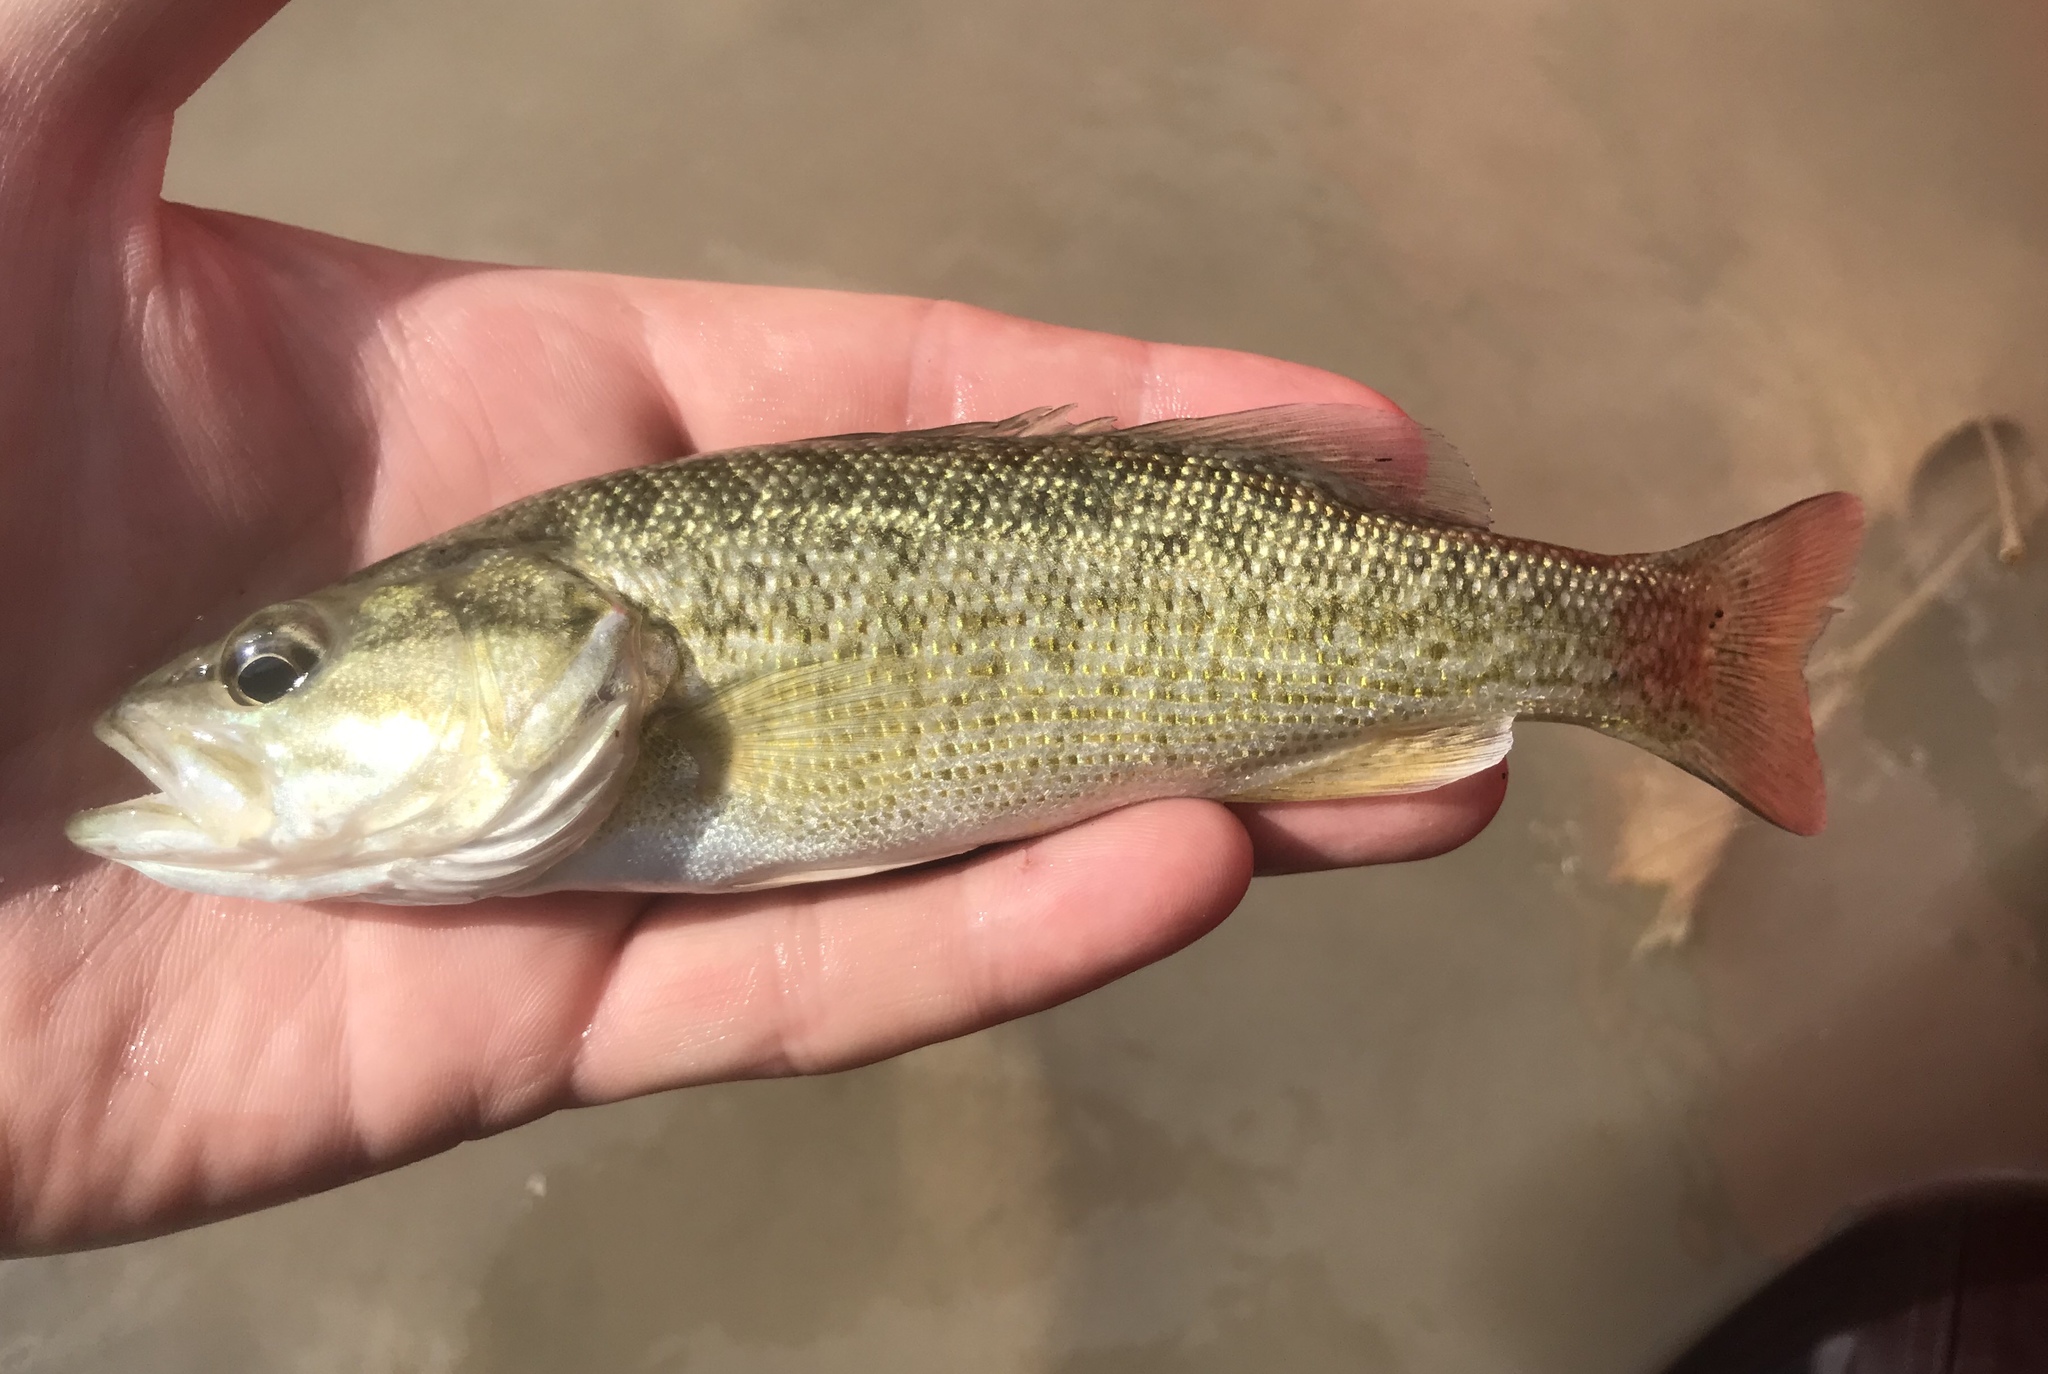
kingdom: Animalia
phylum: Chordata
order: Perciformes
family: Centrarchidae
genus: Micropterus
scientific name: Micropterus treculii
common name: Guadalupe bass
